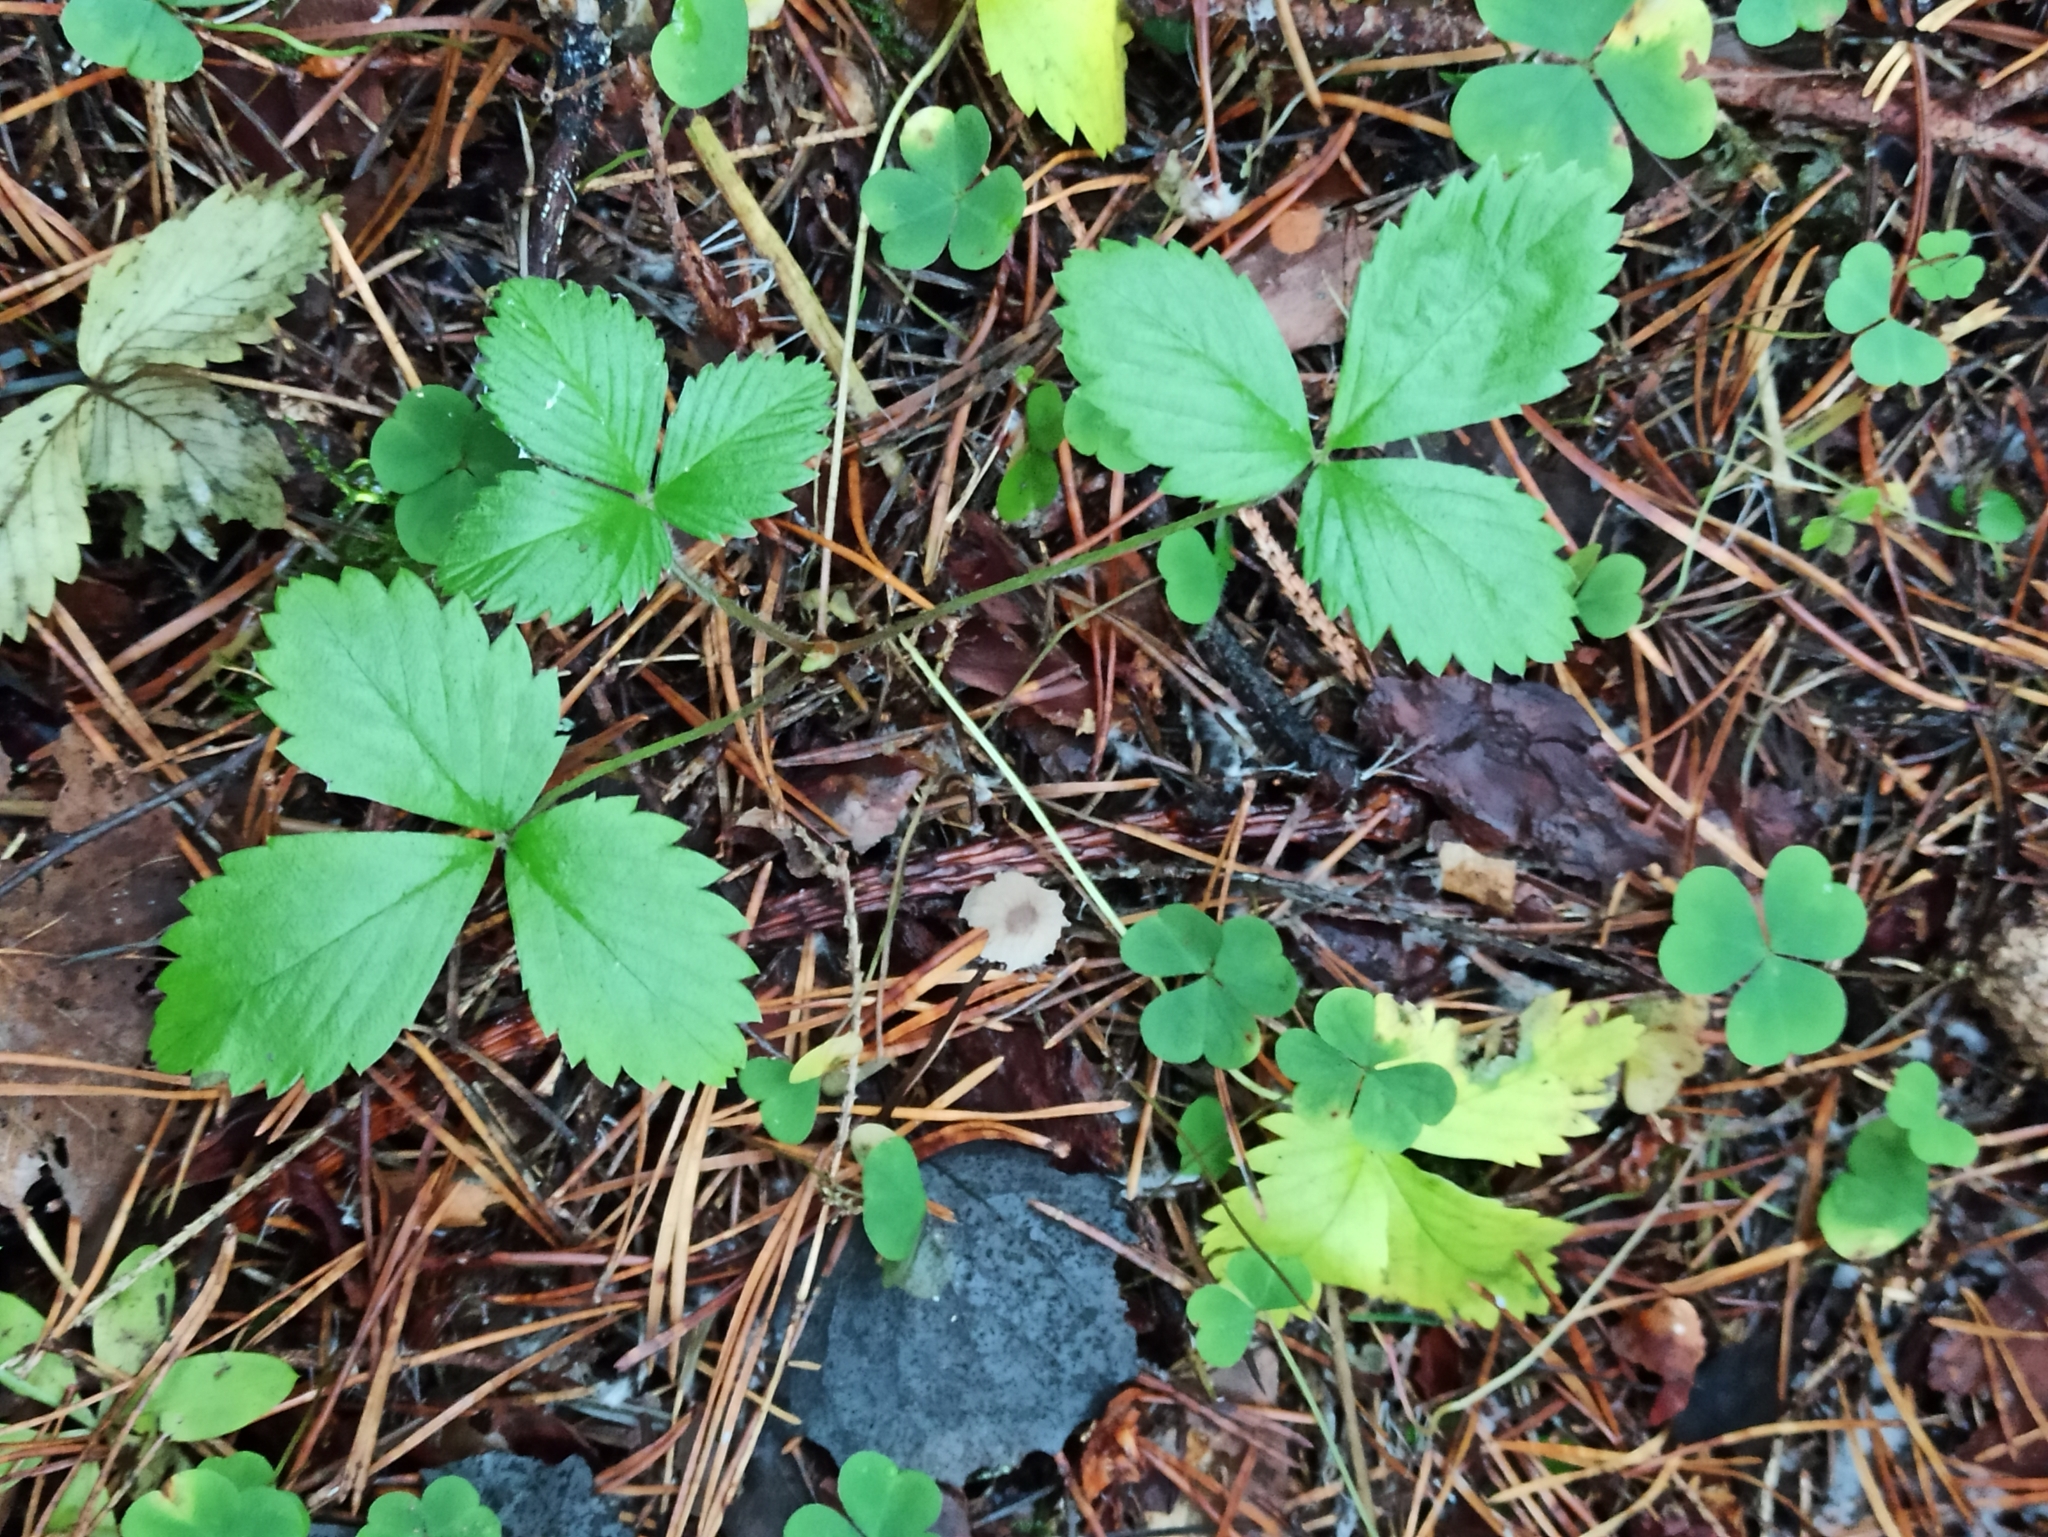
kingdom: Plantae
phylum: Tracheophyta
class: Magnoliopsida
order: Rosales
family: Rosaceae
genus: Fragaria
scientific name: Fragaria vesca
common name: Wild strawberry
